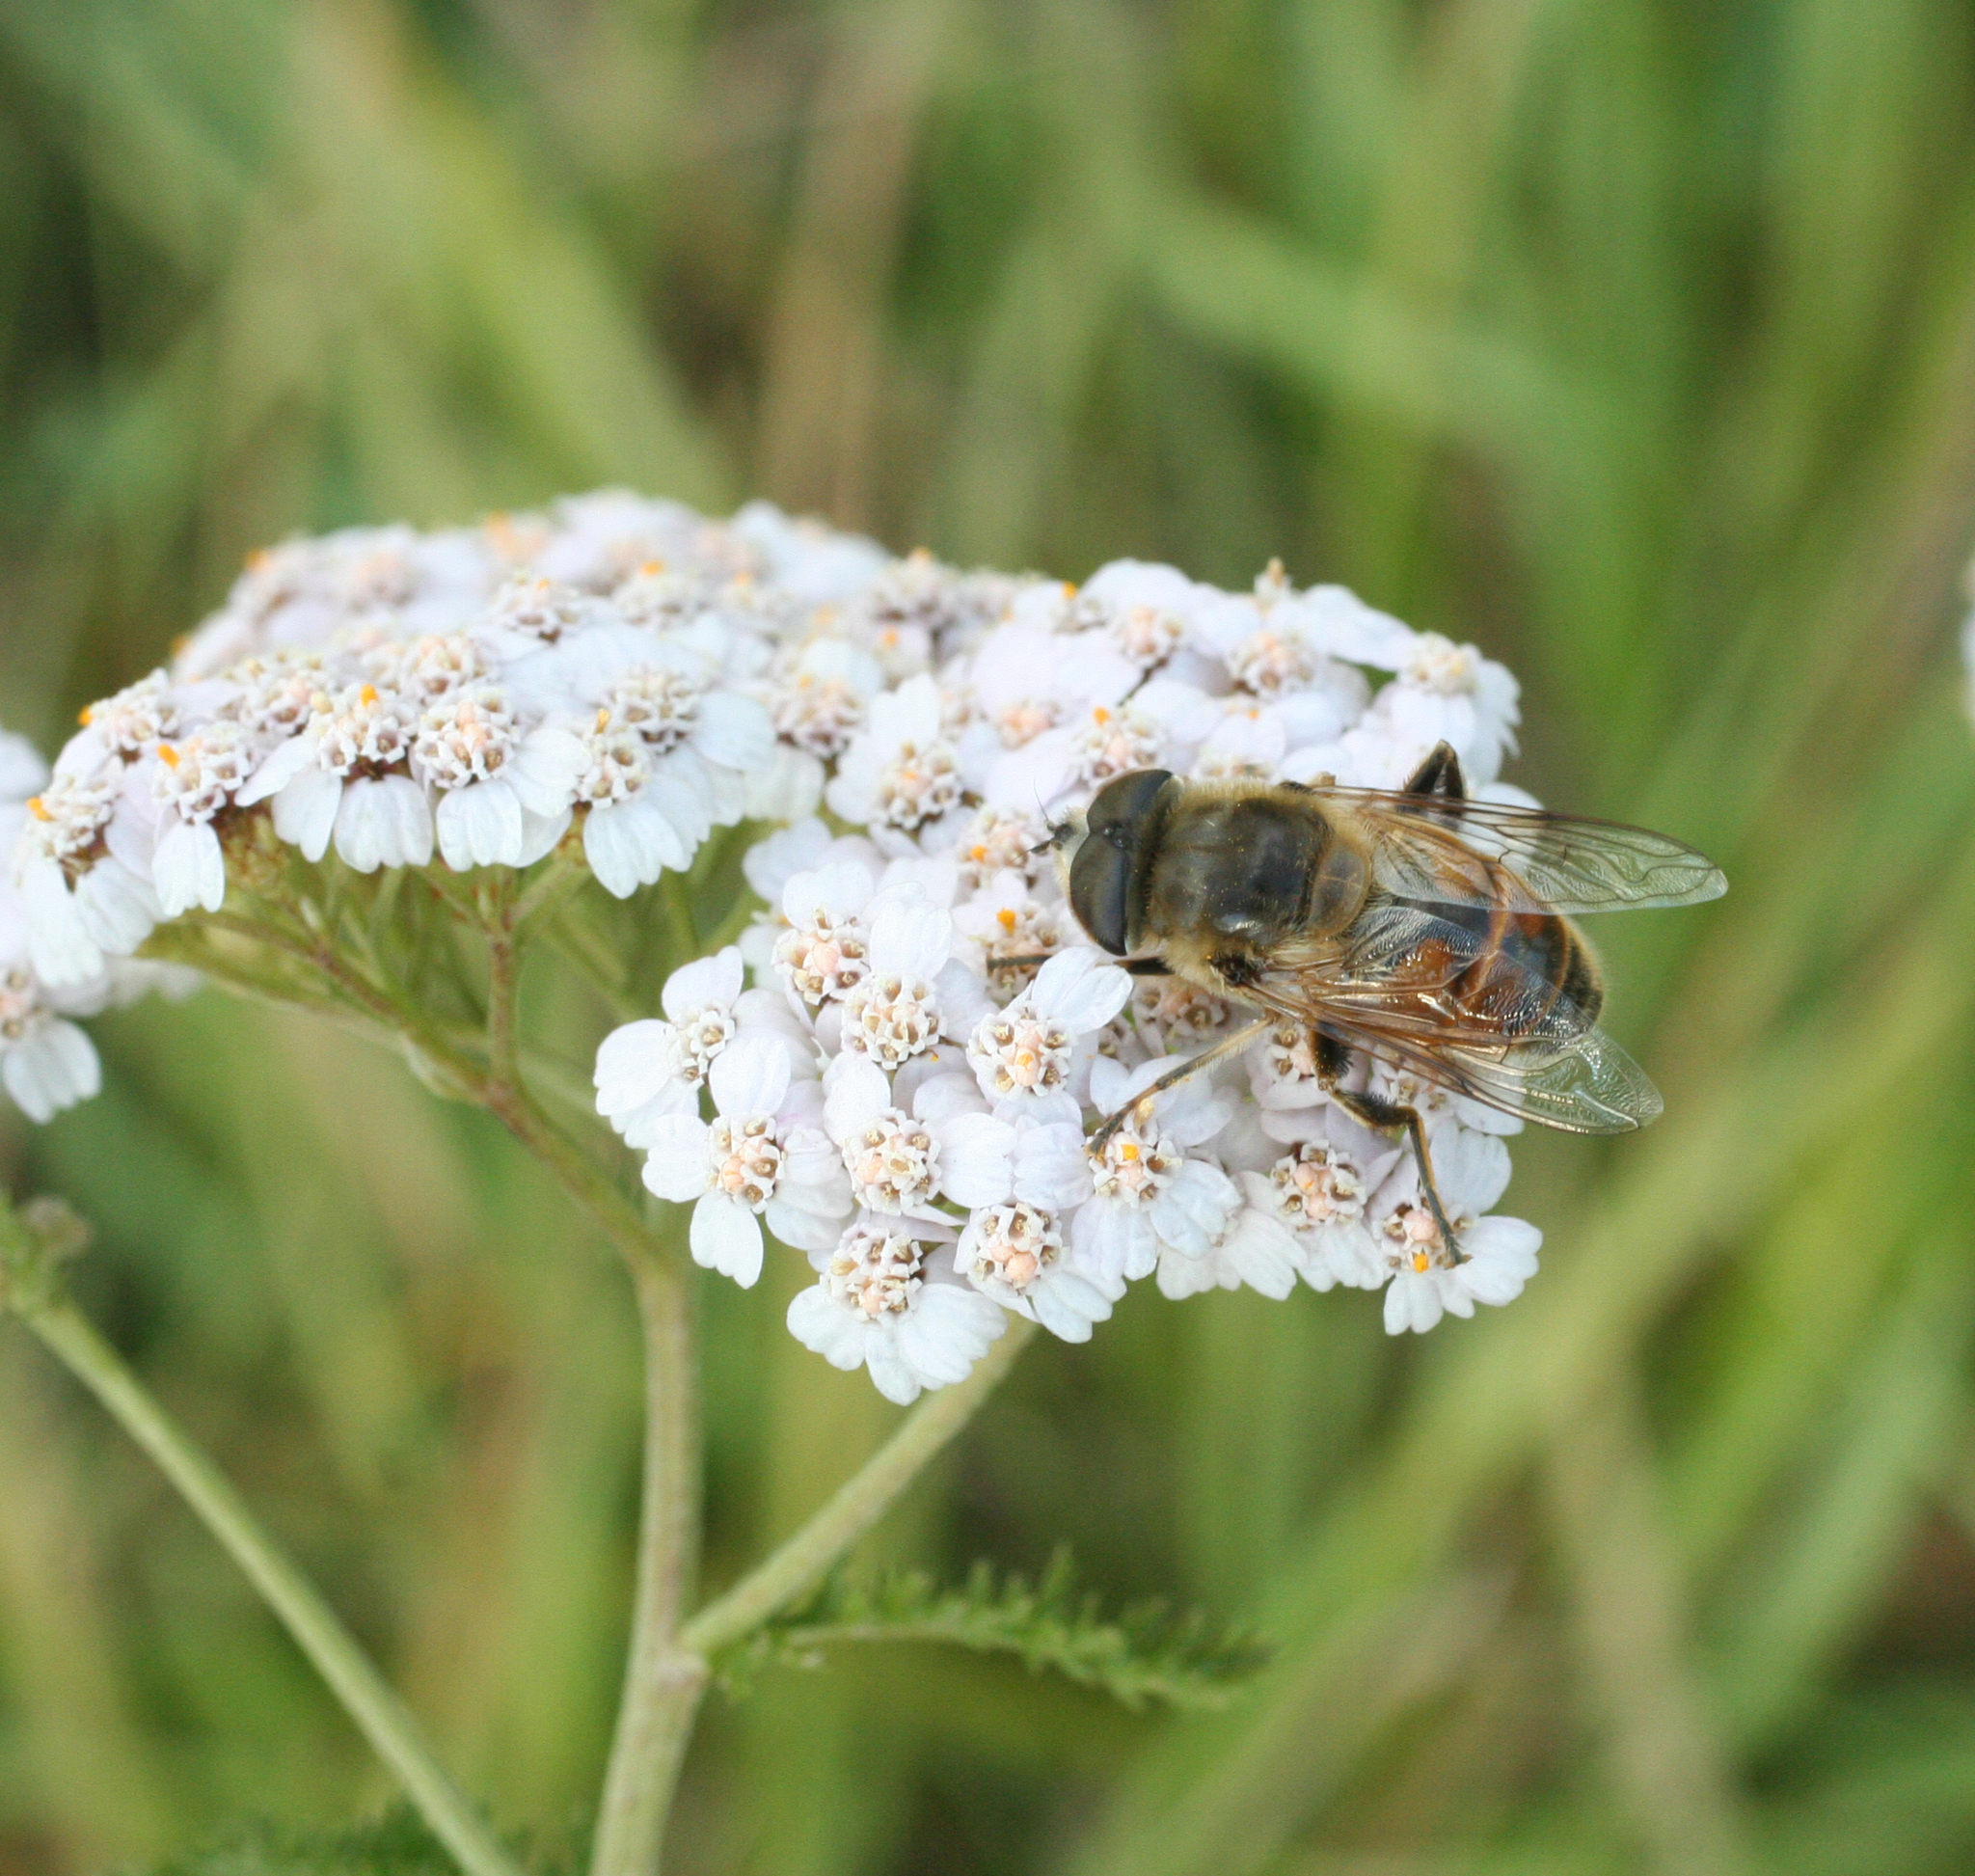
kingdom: Animalia
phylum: Arthropoda
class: Insecta
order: Diptera
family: Syrphidae
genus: Eristalis
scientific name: Eristalis tenax
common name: Drone fly
